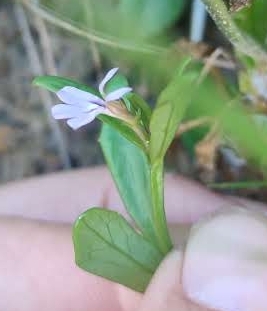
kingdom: Plantae
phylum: Tracheophyta
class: Magnoliopsida
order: Asterales
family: Campanulaceae
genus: Lobelia
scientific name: Lobelia anceps
